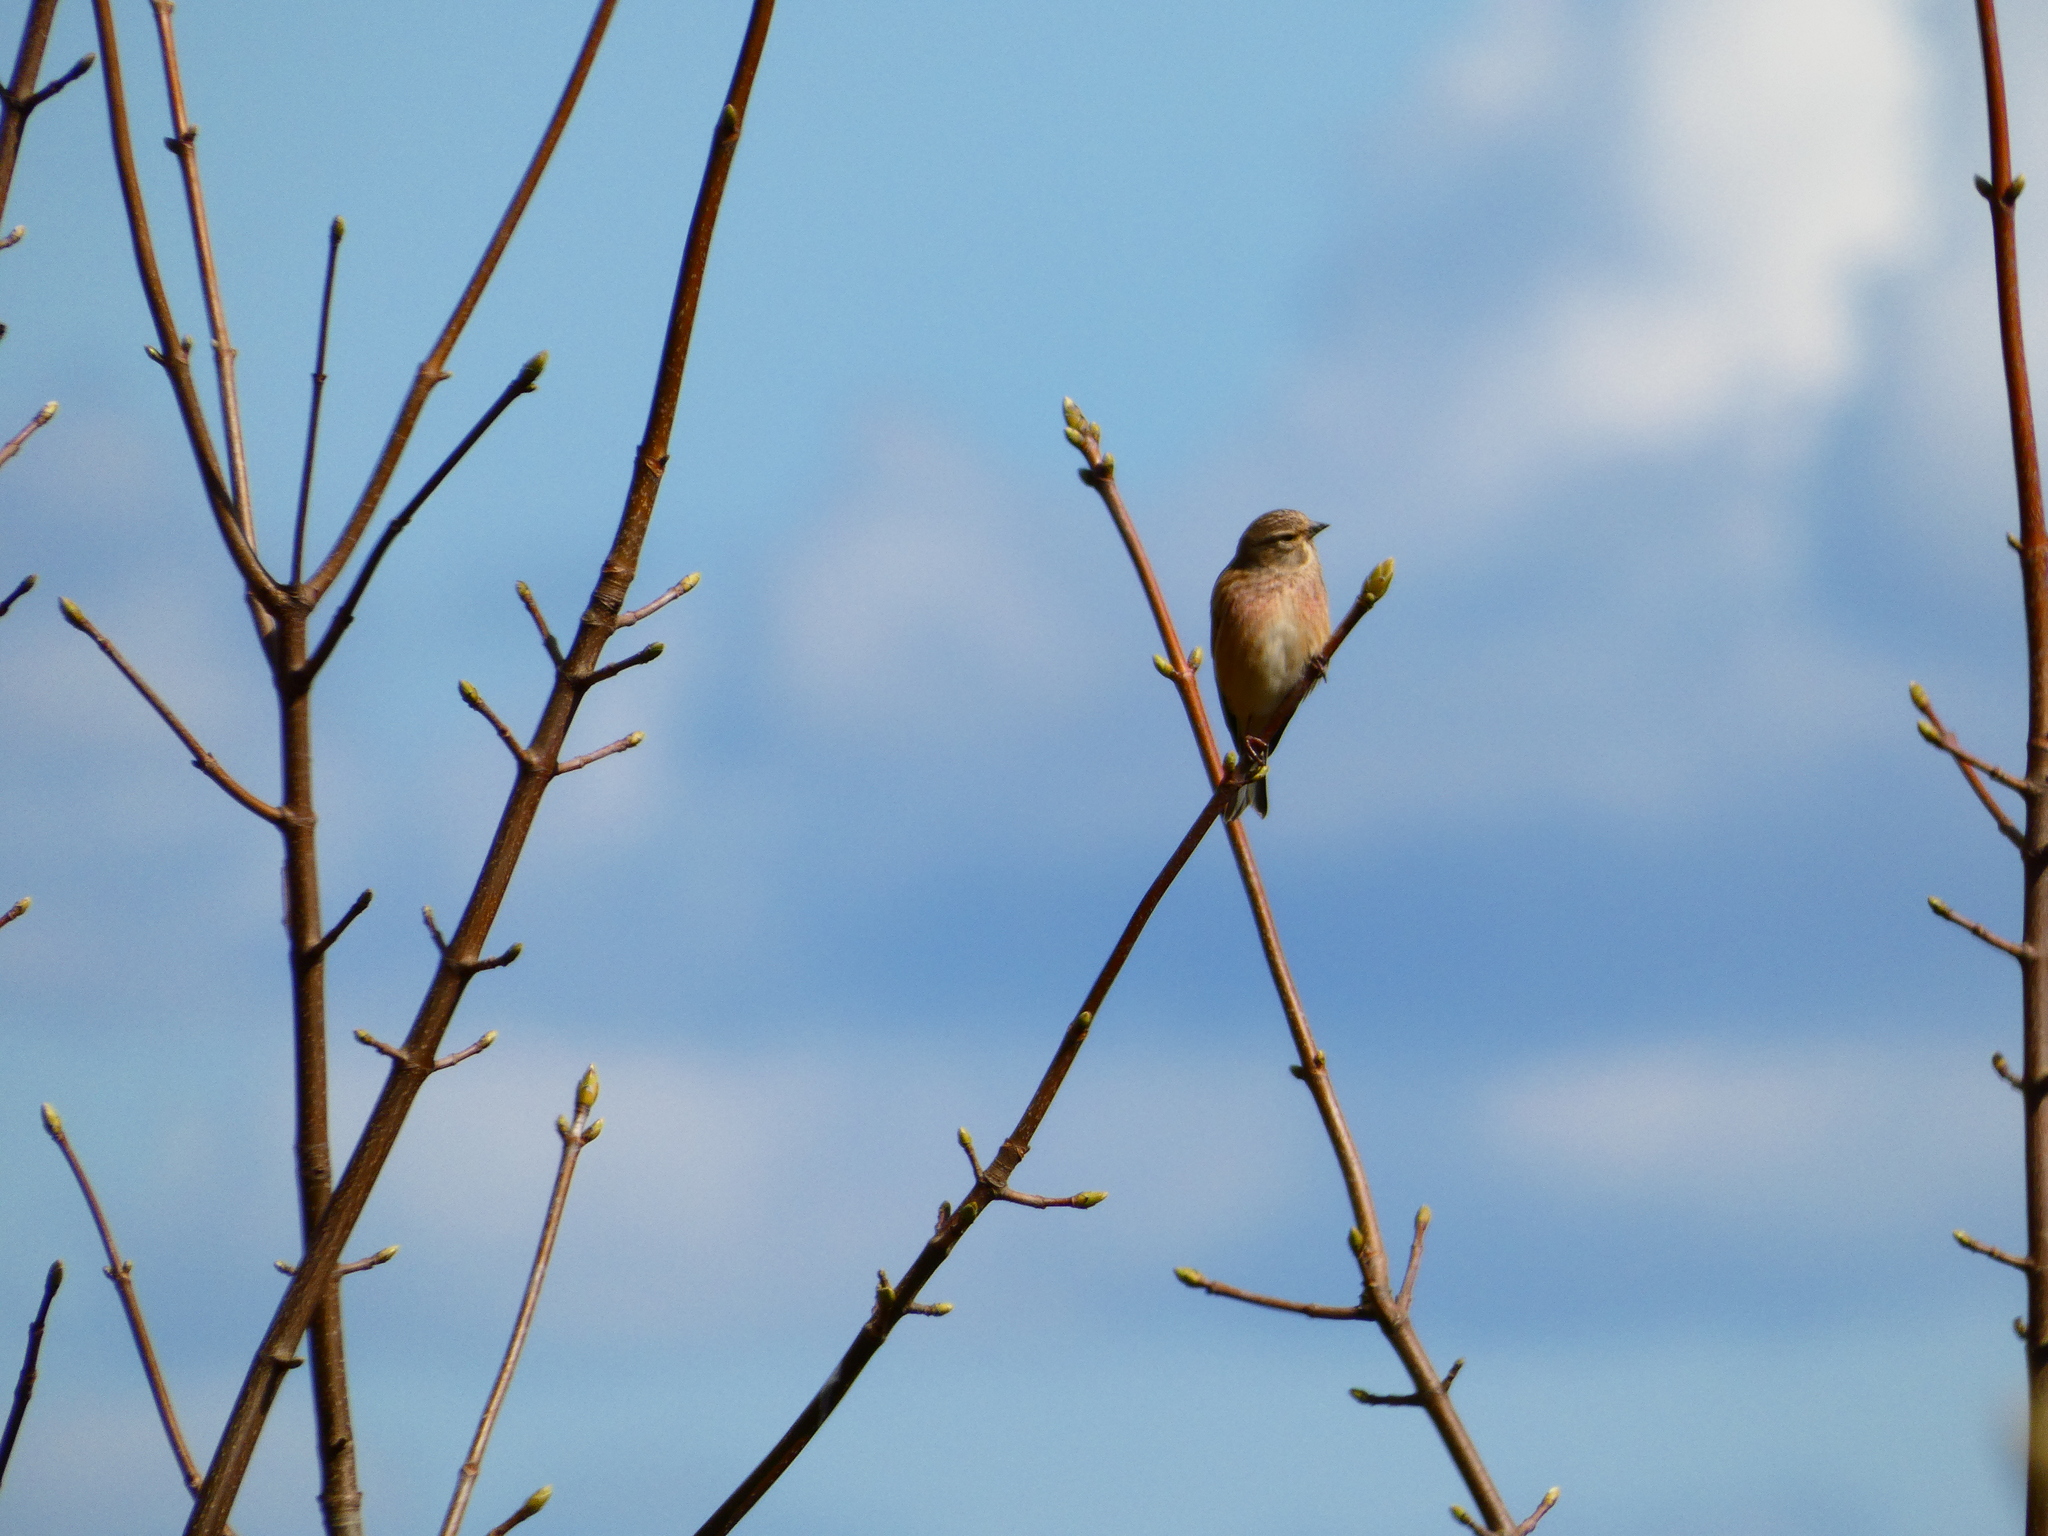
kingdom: Animalia
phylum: Chordata
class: Aves
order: Passeriformes
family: Fringillidae
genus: Linaria
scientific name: Linaria cannabina
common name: Common linnet
